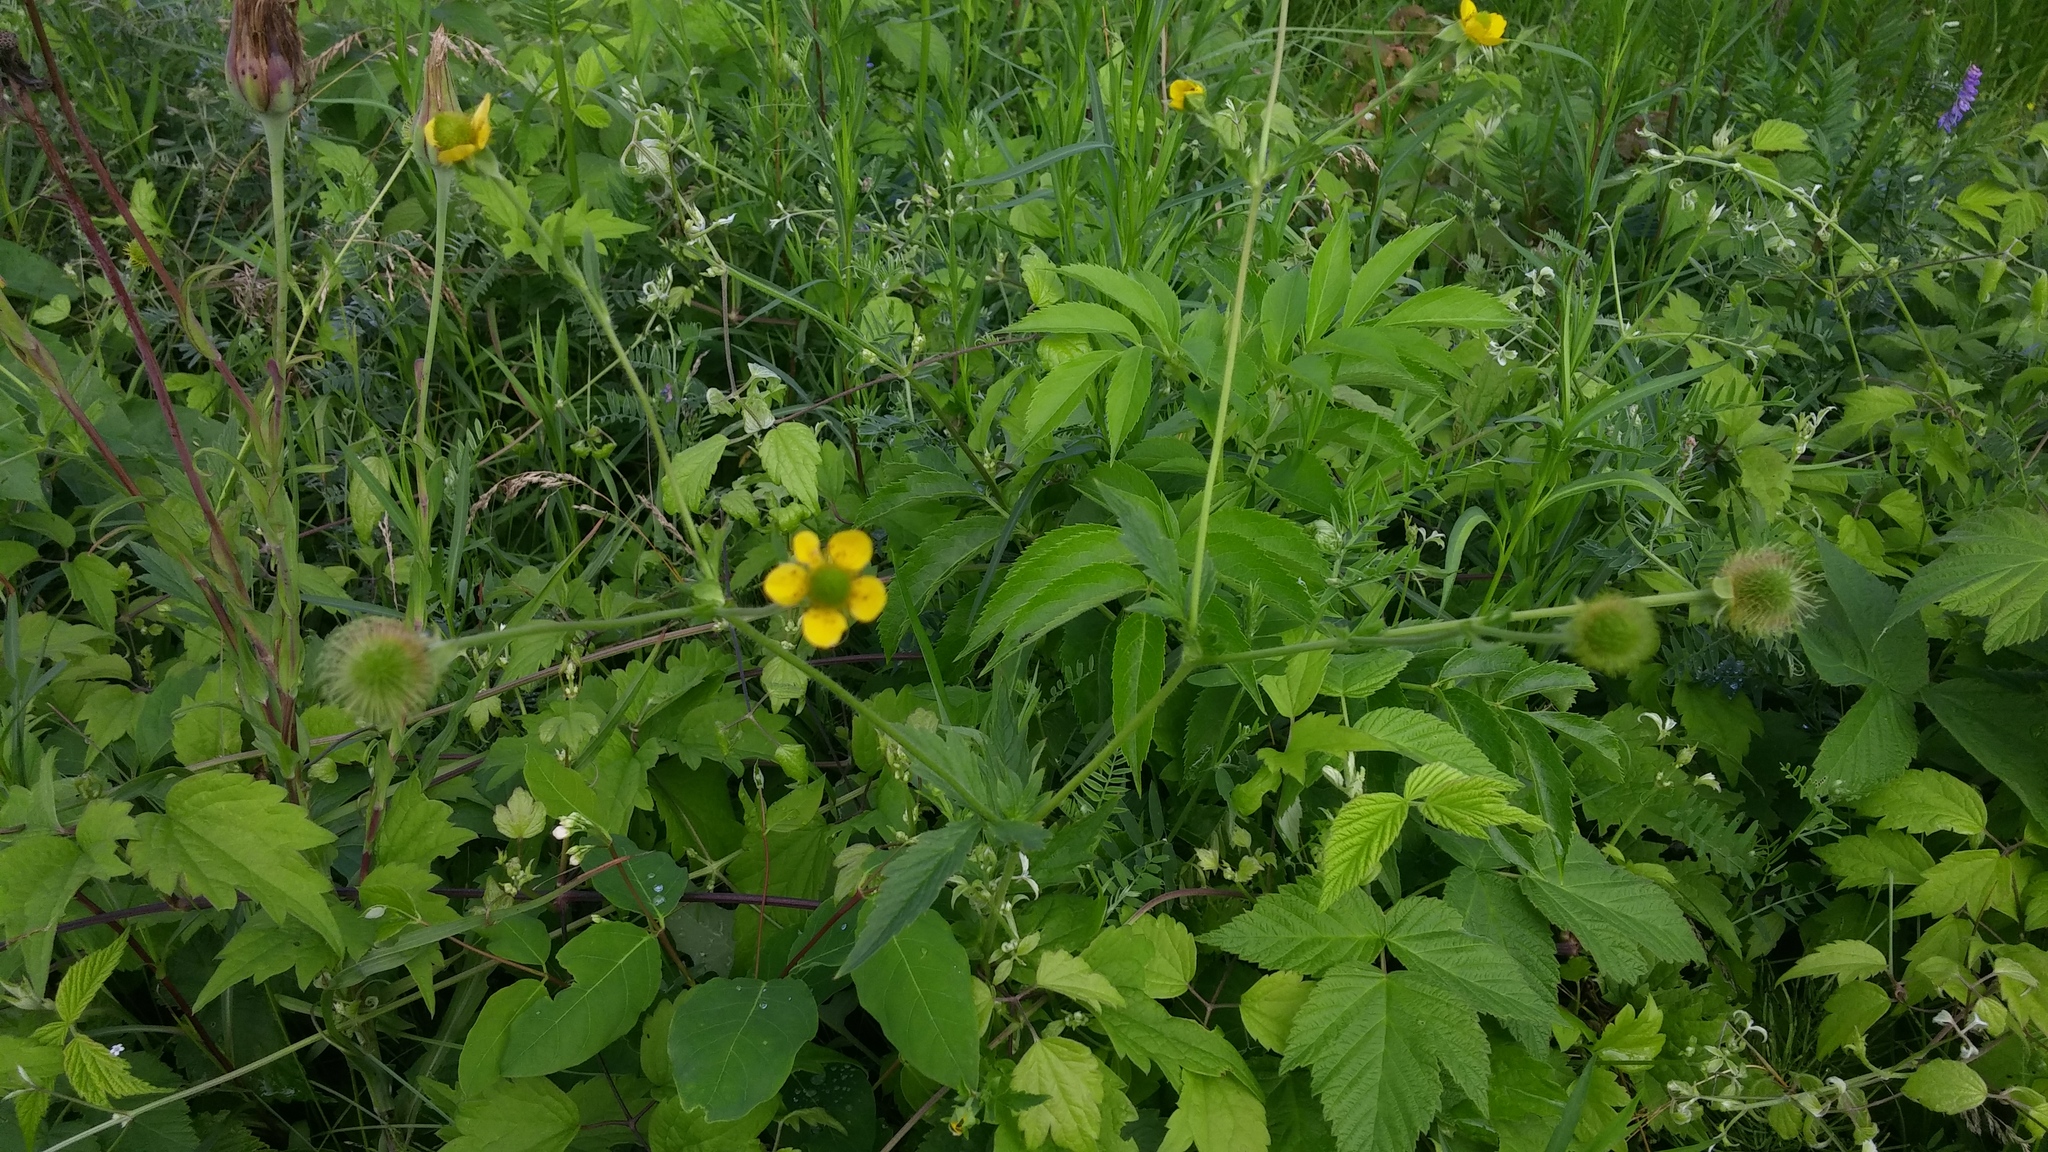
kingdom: Plantae
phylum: Tracheophyta
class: Magnoliopsida
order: Rosales
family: Rosaceae
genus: Geum
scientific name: Geum aleppicum
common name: Yellow avens
